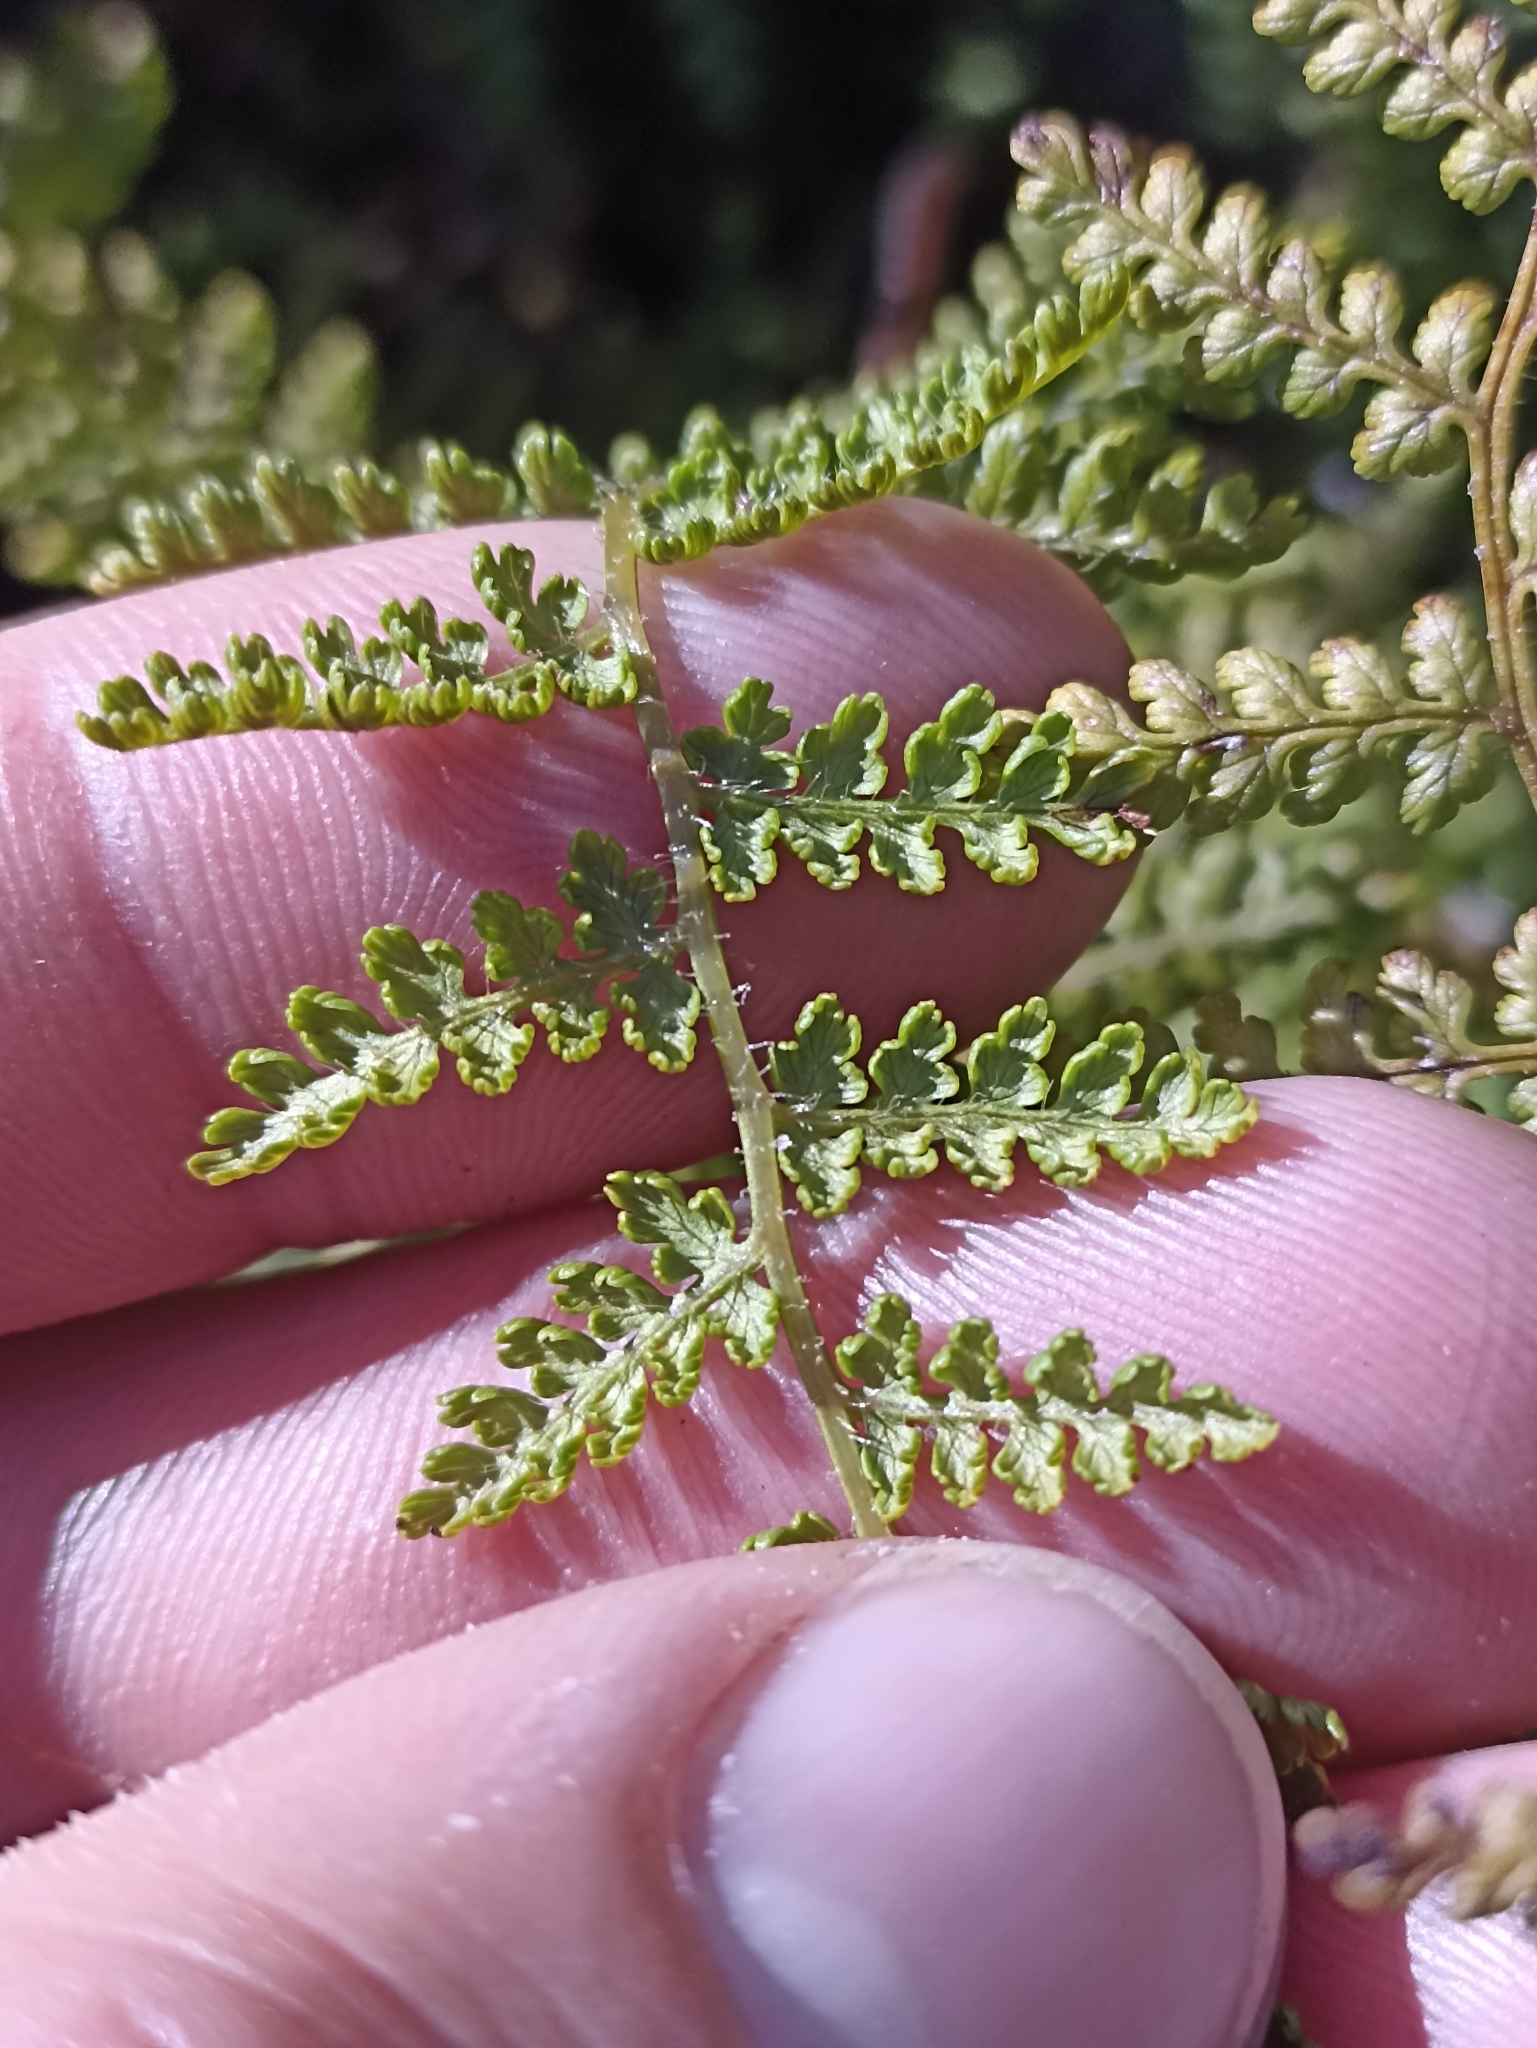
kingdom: Plantae
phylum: Tracheophyta
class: Polypodiopsida
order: Polypodiales
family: Dennstaedtiaceae
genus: Hypolepis
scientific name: Hypolepis millefolium
